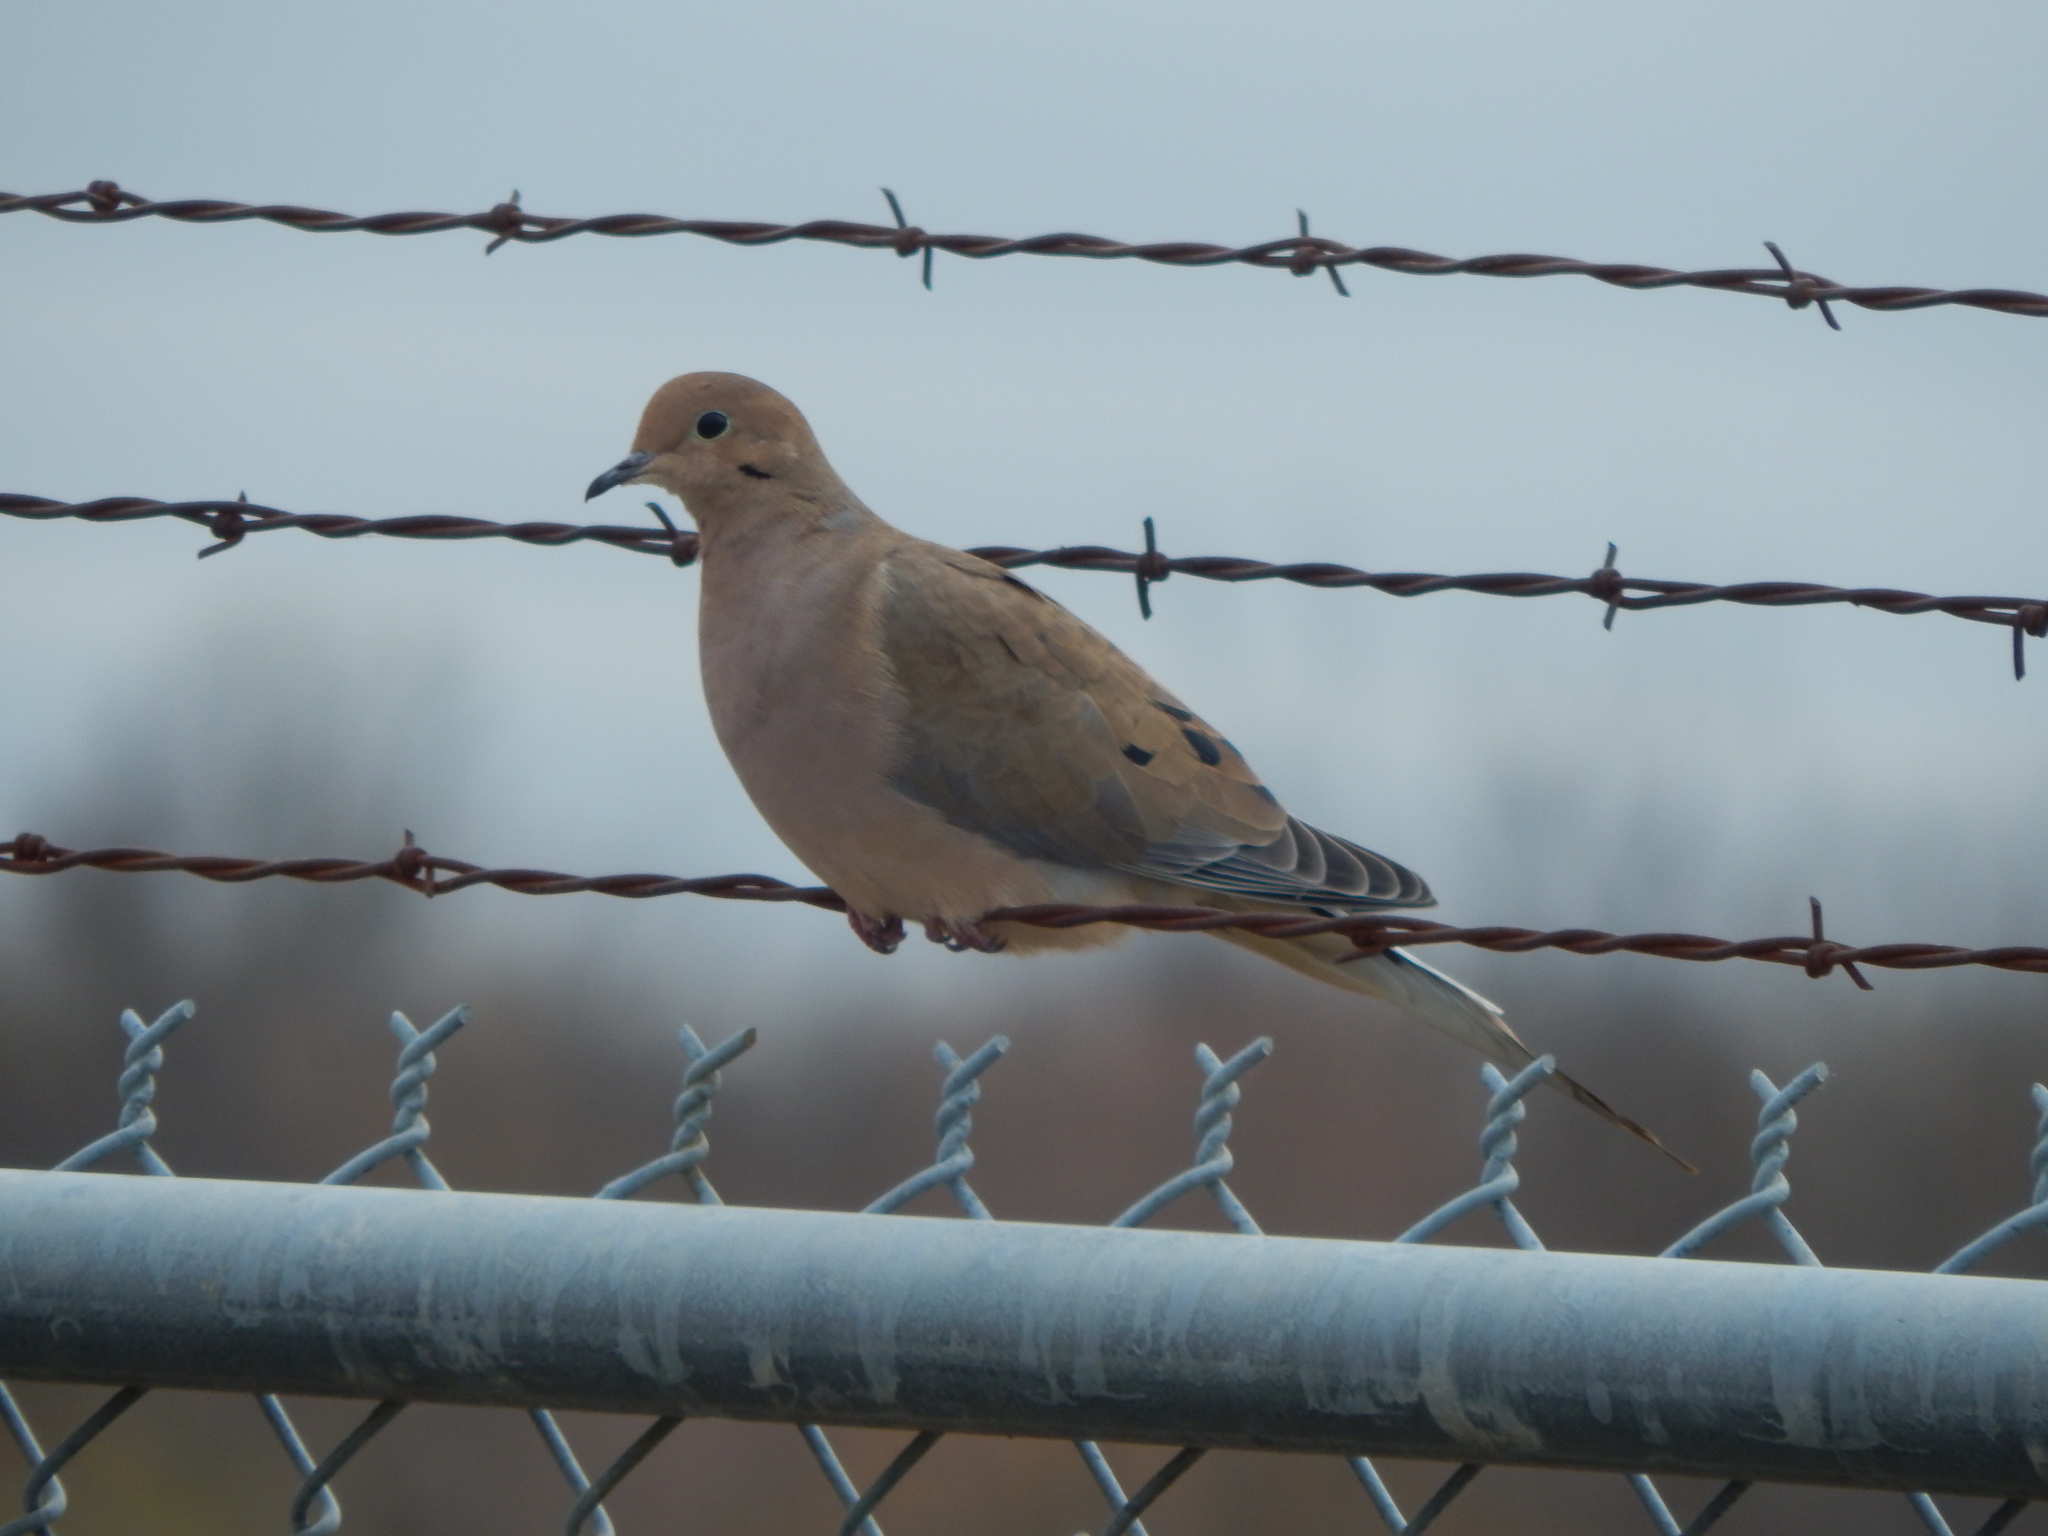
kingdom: Animalia
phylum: Chordata
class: Aves
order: Columbiformes
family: Columbidae
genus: Zenaida
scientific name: Zenaida macroura
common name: Mourning dove
